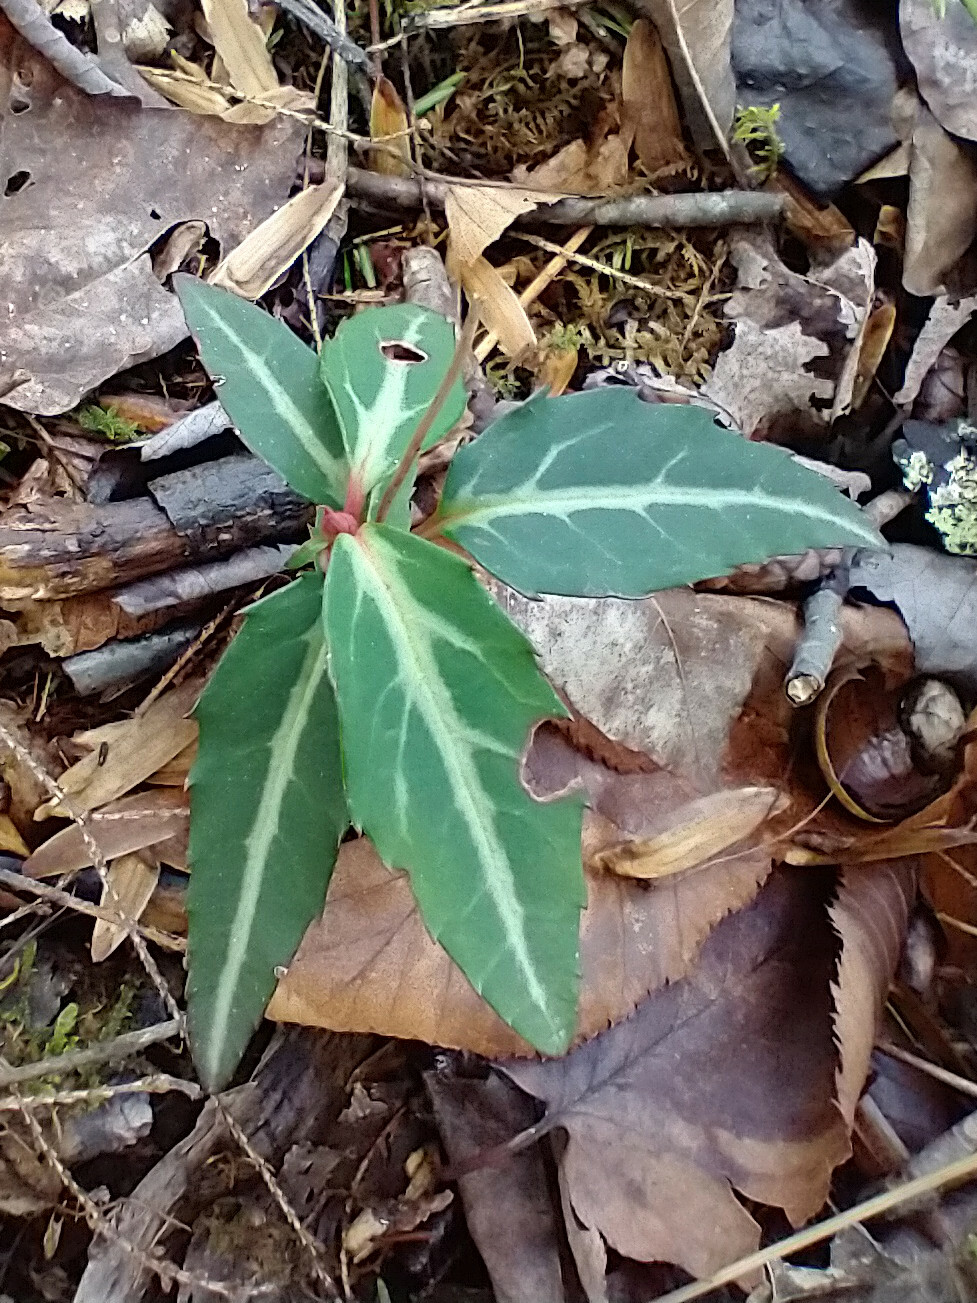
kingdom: Plantae
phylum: Tracheophyta
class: Magnoliopsida
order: Ericales
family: Ericaceae
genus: Chimaphila
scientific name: Chimaphila maculata
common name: Spotted pipsissewa
